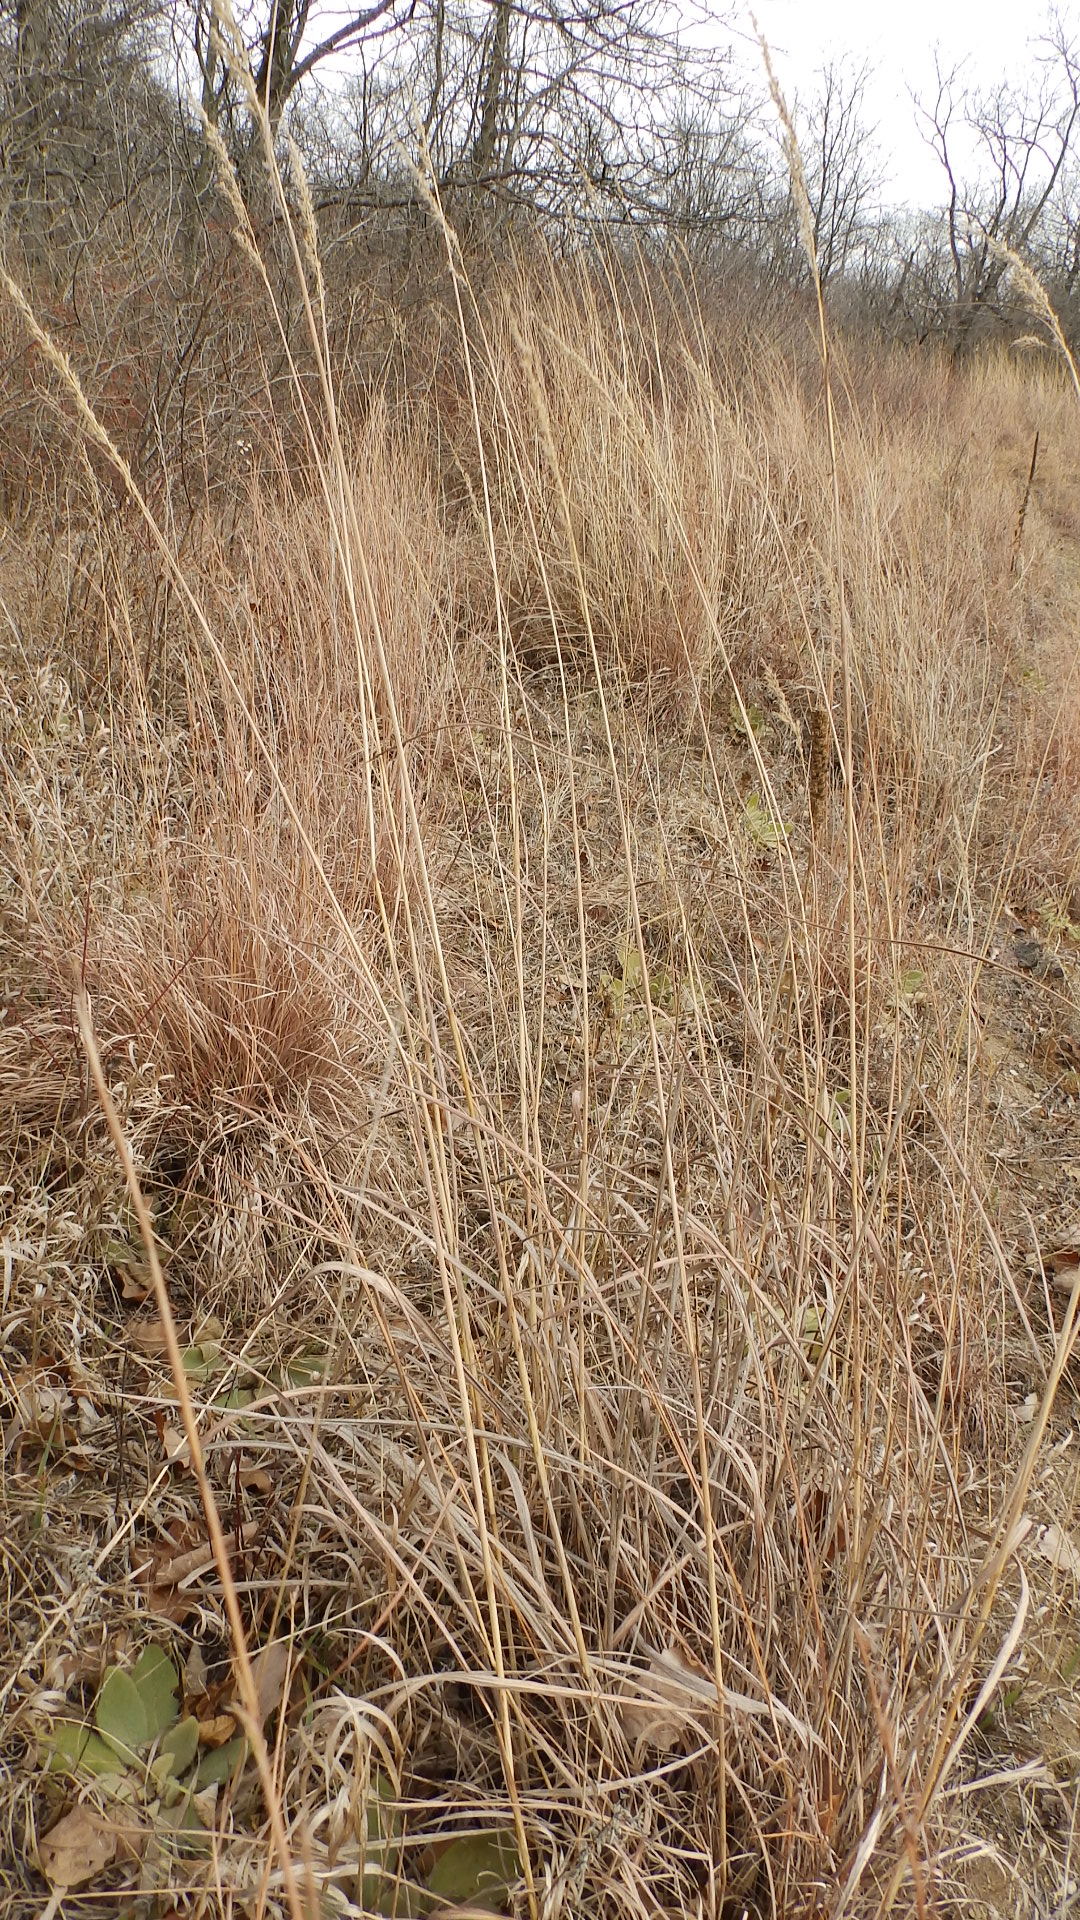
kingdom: Plantae
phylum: Tracheophyta
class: Liliopsida
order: Poales
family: Poaceae
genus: Sorghastrum
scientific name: Sorghastrum nutans
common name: Indian grass
